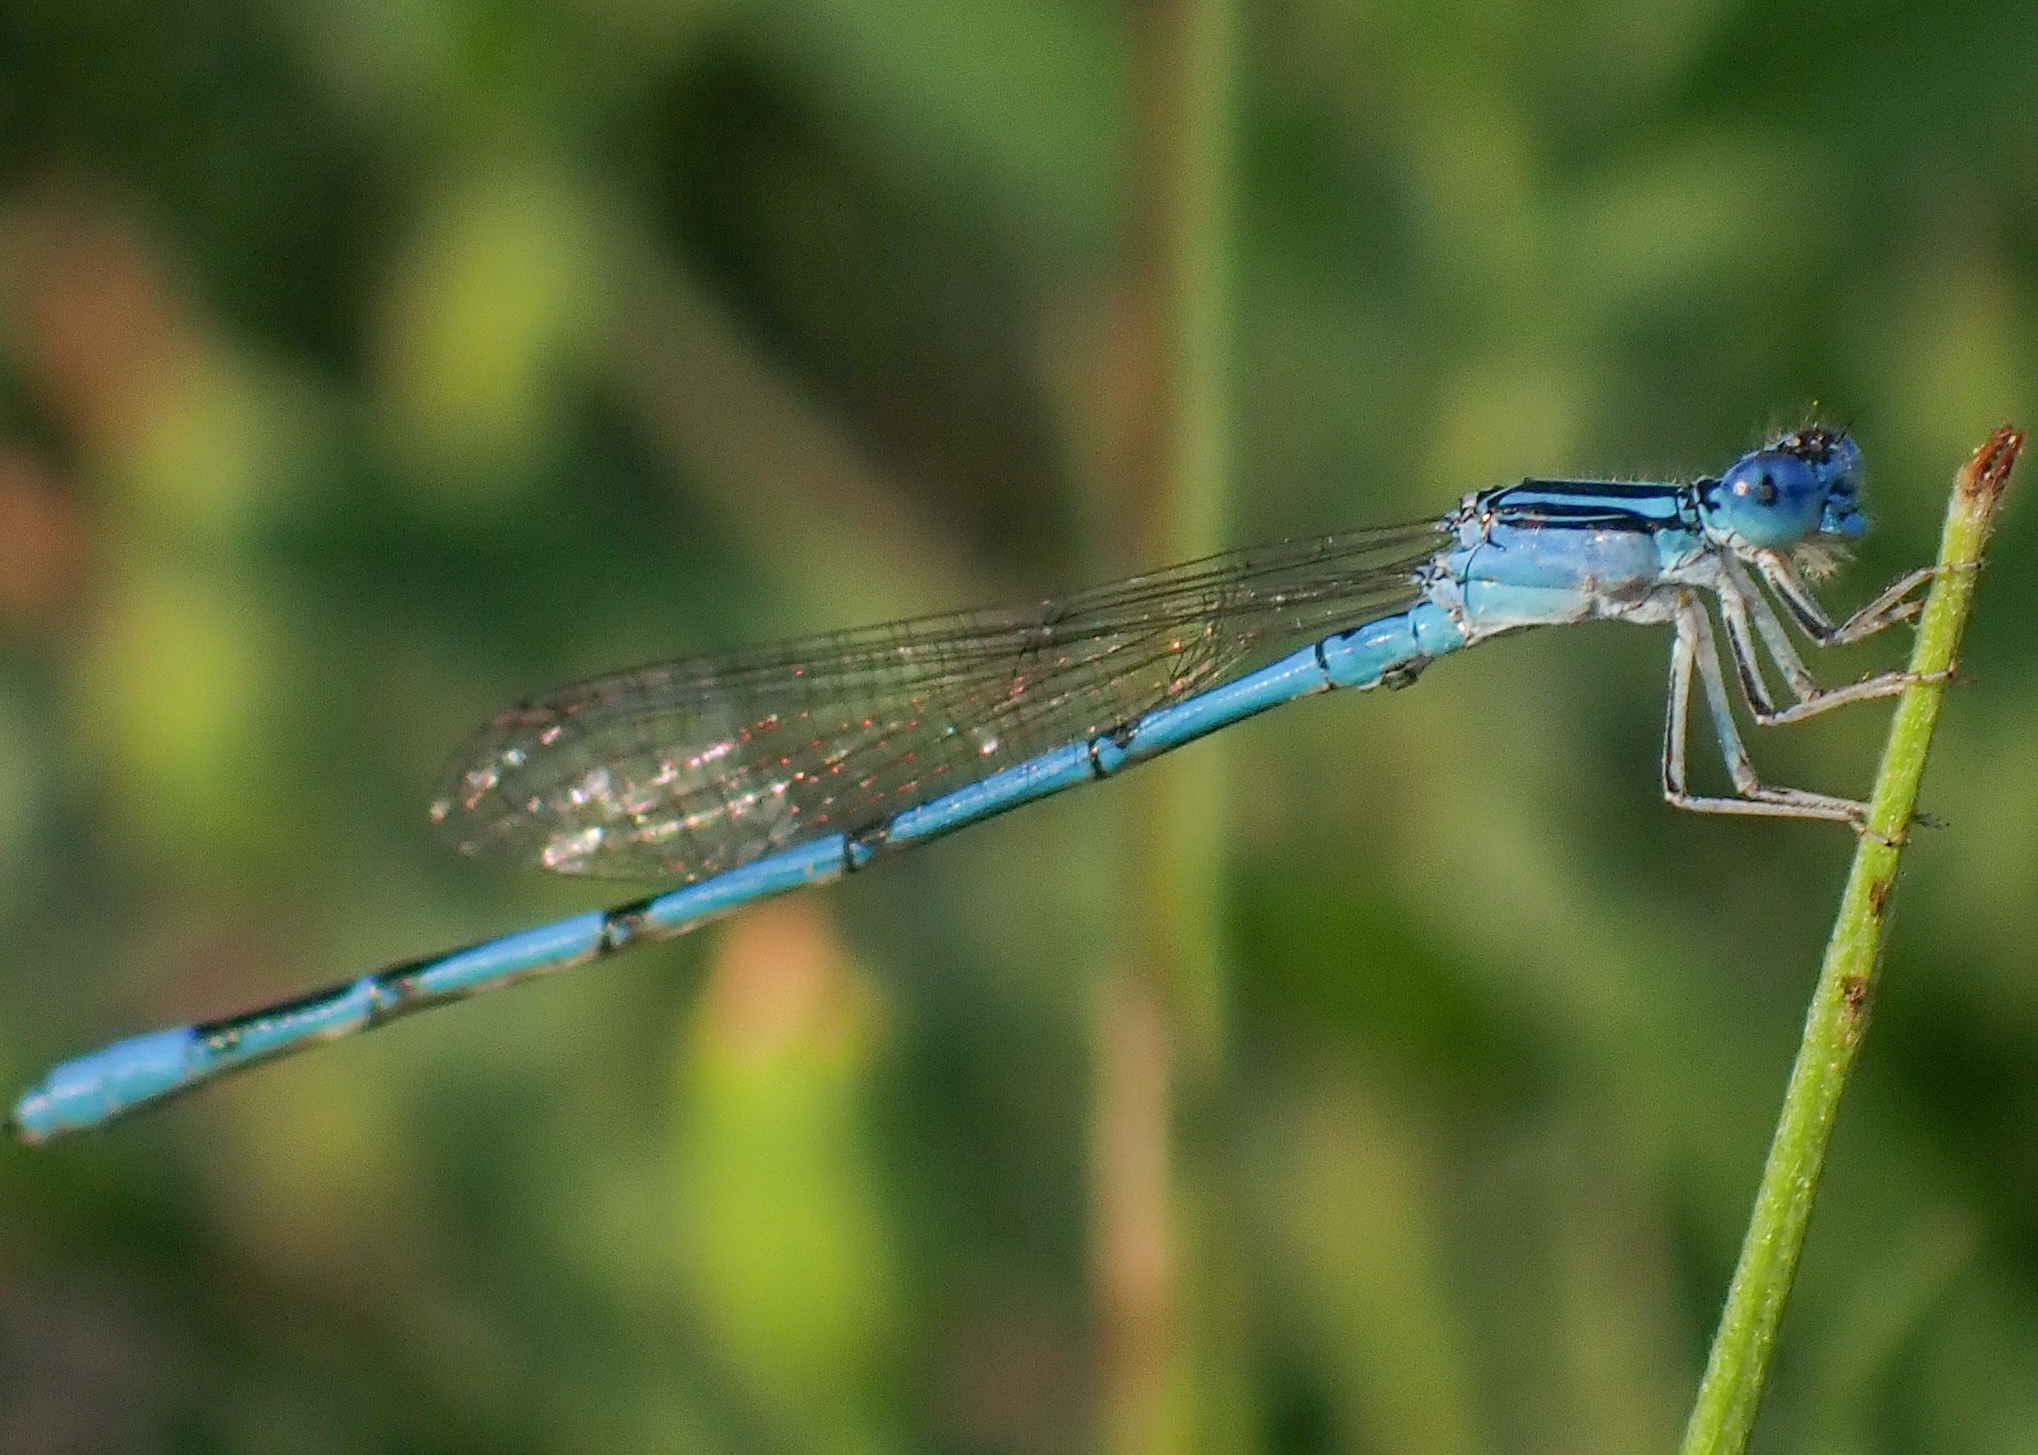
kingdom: Animalia
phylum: Arthropoda
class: Insecta
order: Odonata
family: Coenagrionidae
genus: Enallagma
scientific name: Enallagma basidens
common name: Double-striped bluet
